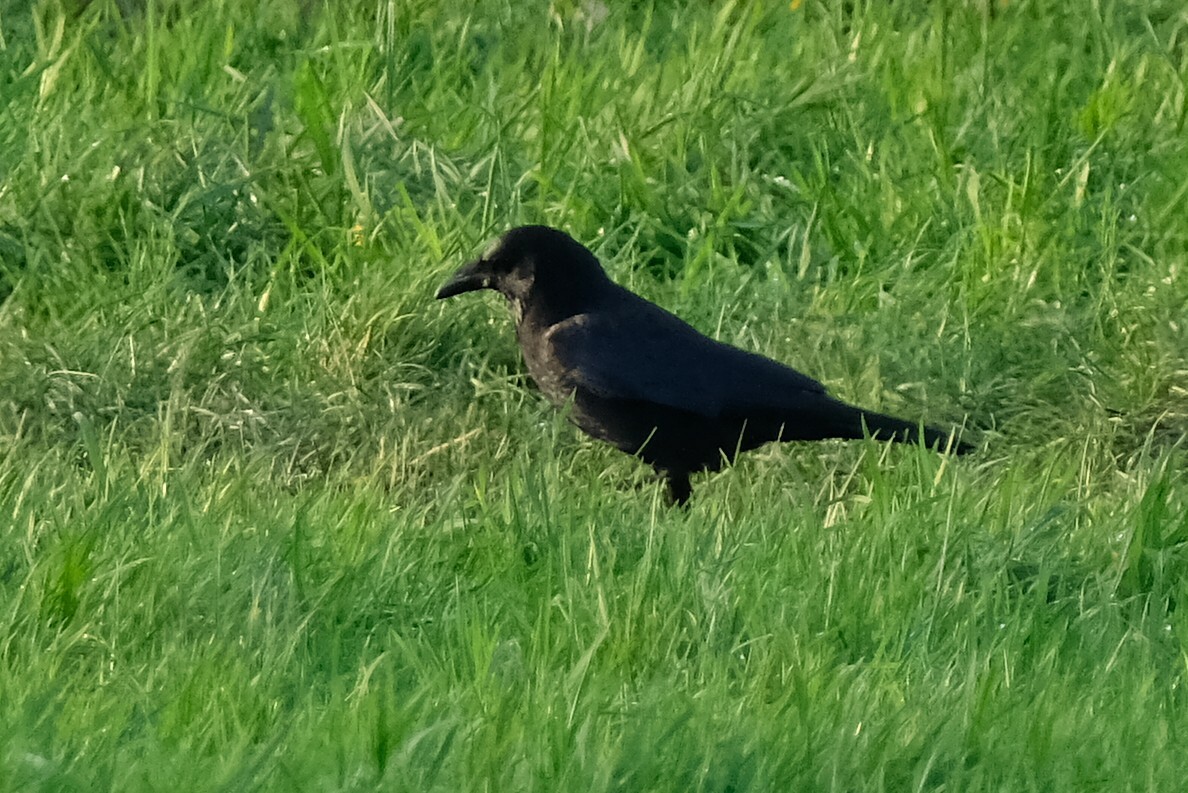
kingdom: Animalia
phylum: Chordata
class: Aves
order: Passeriformes
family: Corvidae
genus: Corvus
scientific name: Corvus corone
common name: Carrion crow
